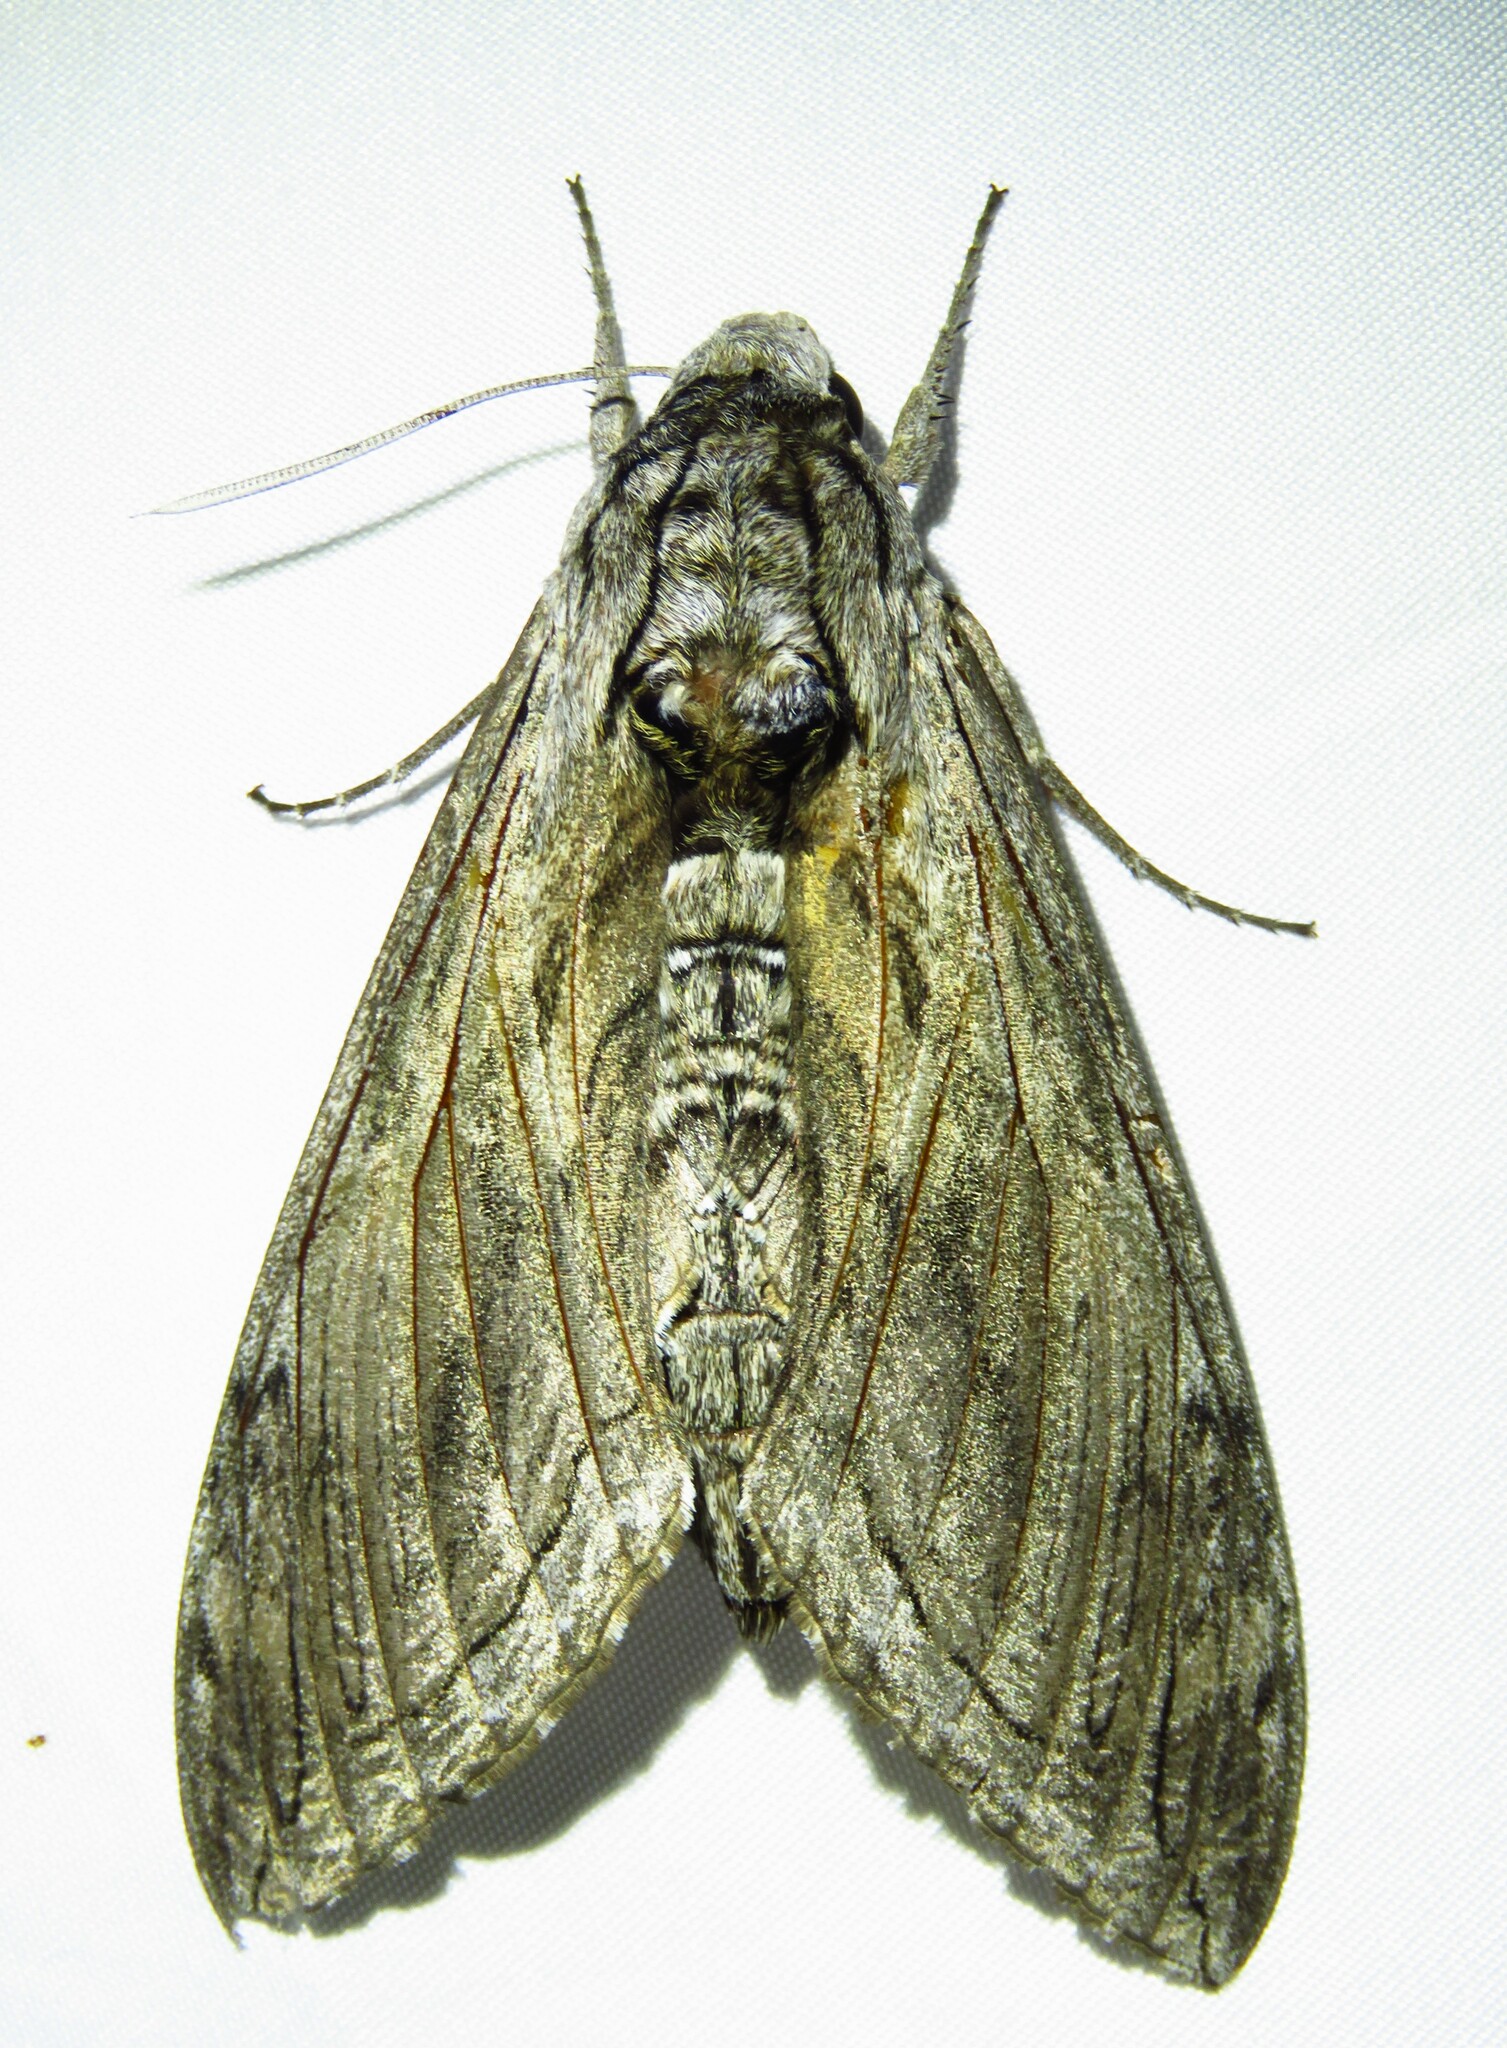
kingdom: Animalia
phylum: Arthropoda
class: Insecta
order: Lepidoptera
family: Sphingidae
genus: Manduca
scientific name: Manduca quinquemaculatus
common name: Five-spotted hawk-moth
